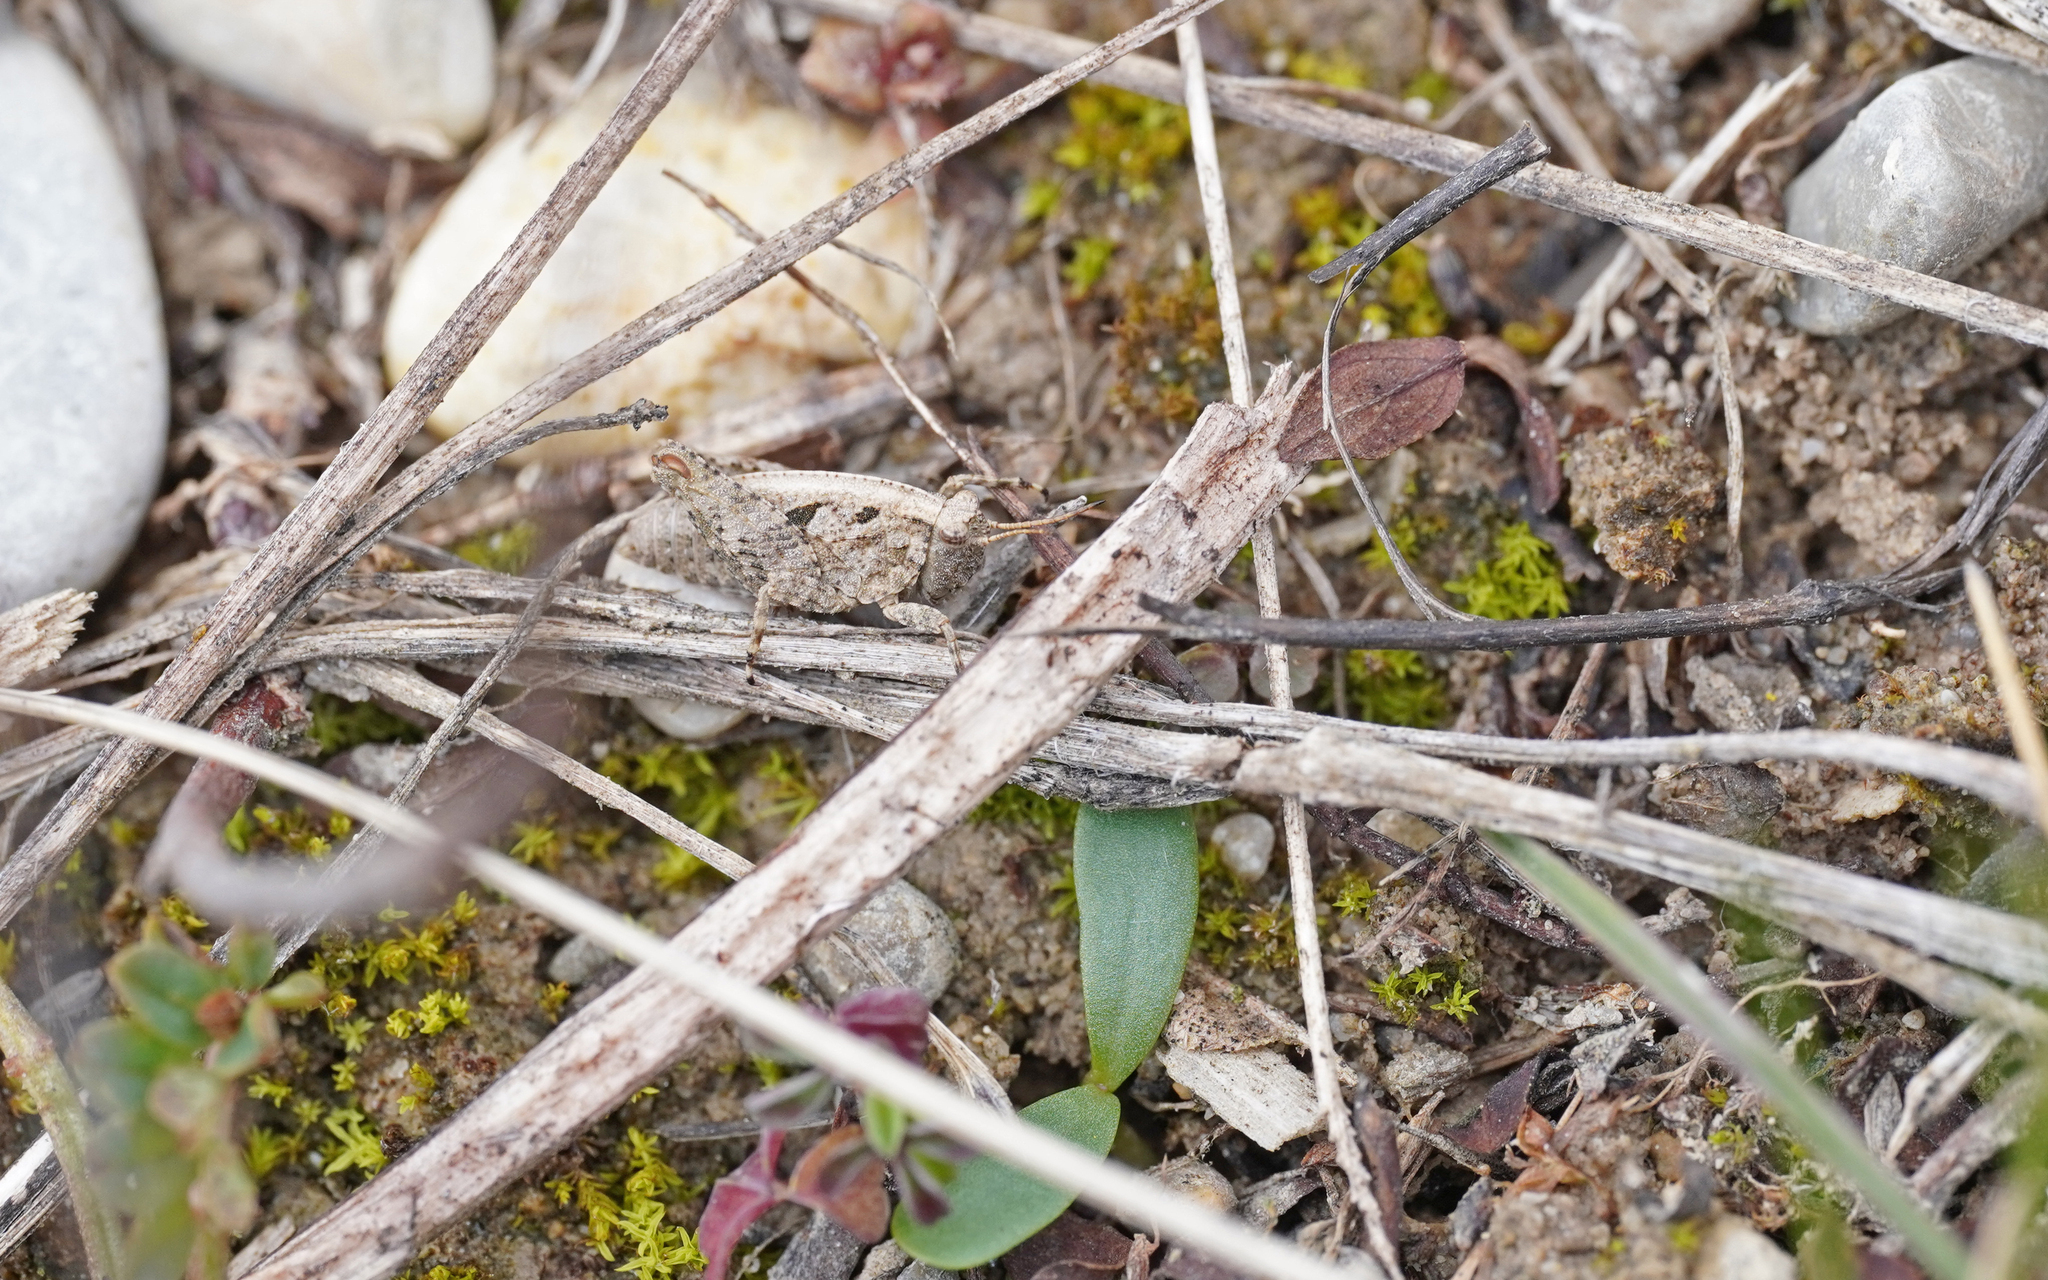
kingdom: Animalia
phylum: Arthropoda
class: Insecta
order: Orthoptera
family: Tetrigidae
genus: Tetrix
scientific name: Tetrix tenuicornis
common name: Long-horned groundhopper
